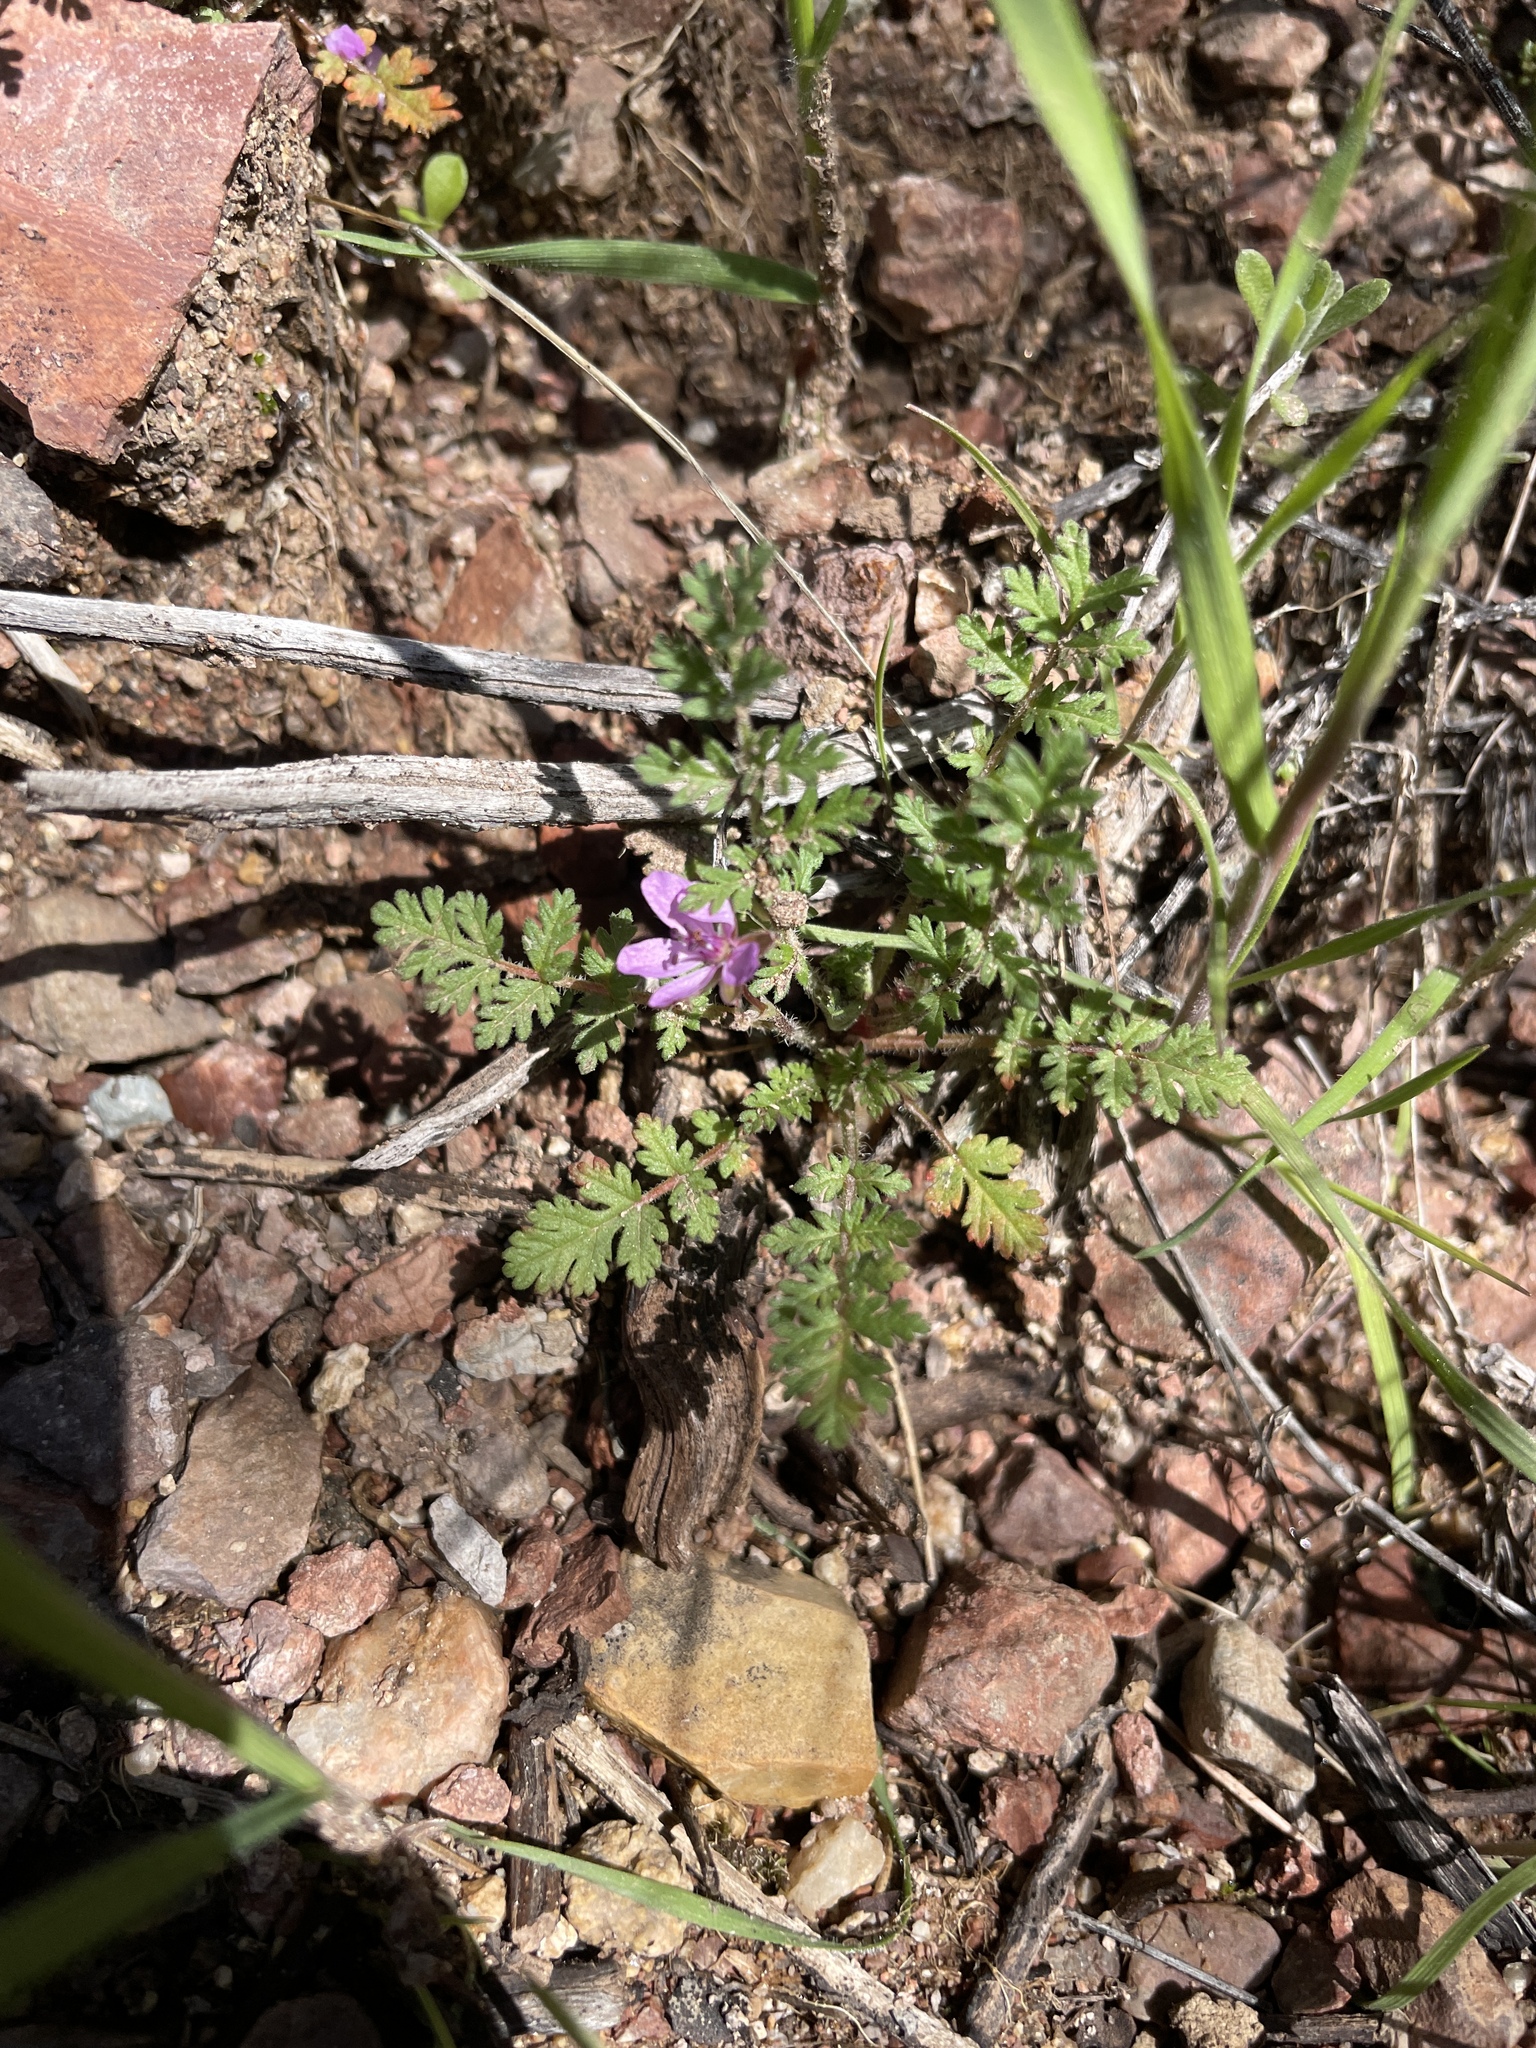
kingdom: Plantae
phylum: Tracheophyta
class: Magnoliopsida
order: Geraniales
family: Geraniaceae
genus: Erodium
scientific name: Erodium cicutarium
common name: Common stork's-bill
